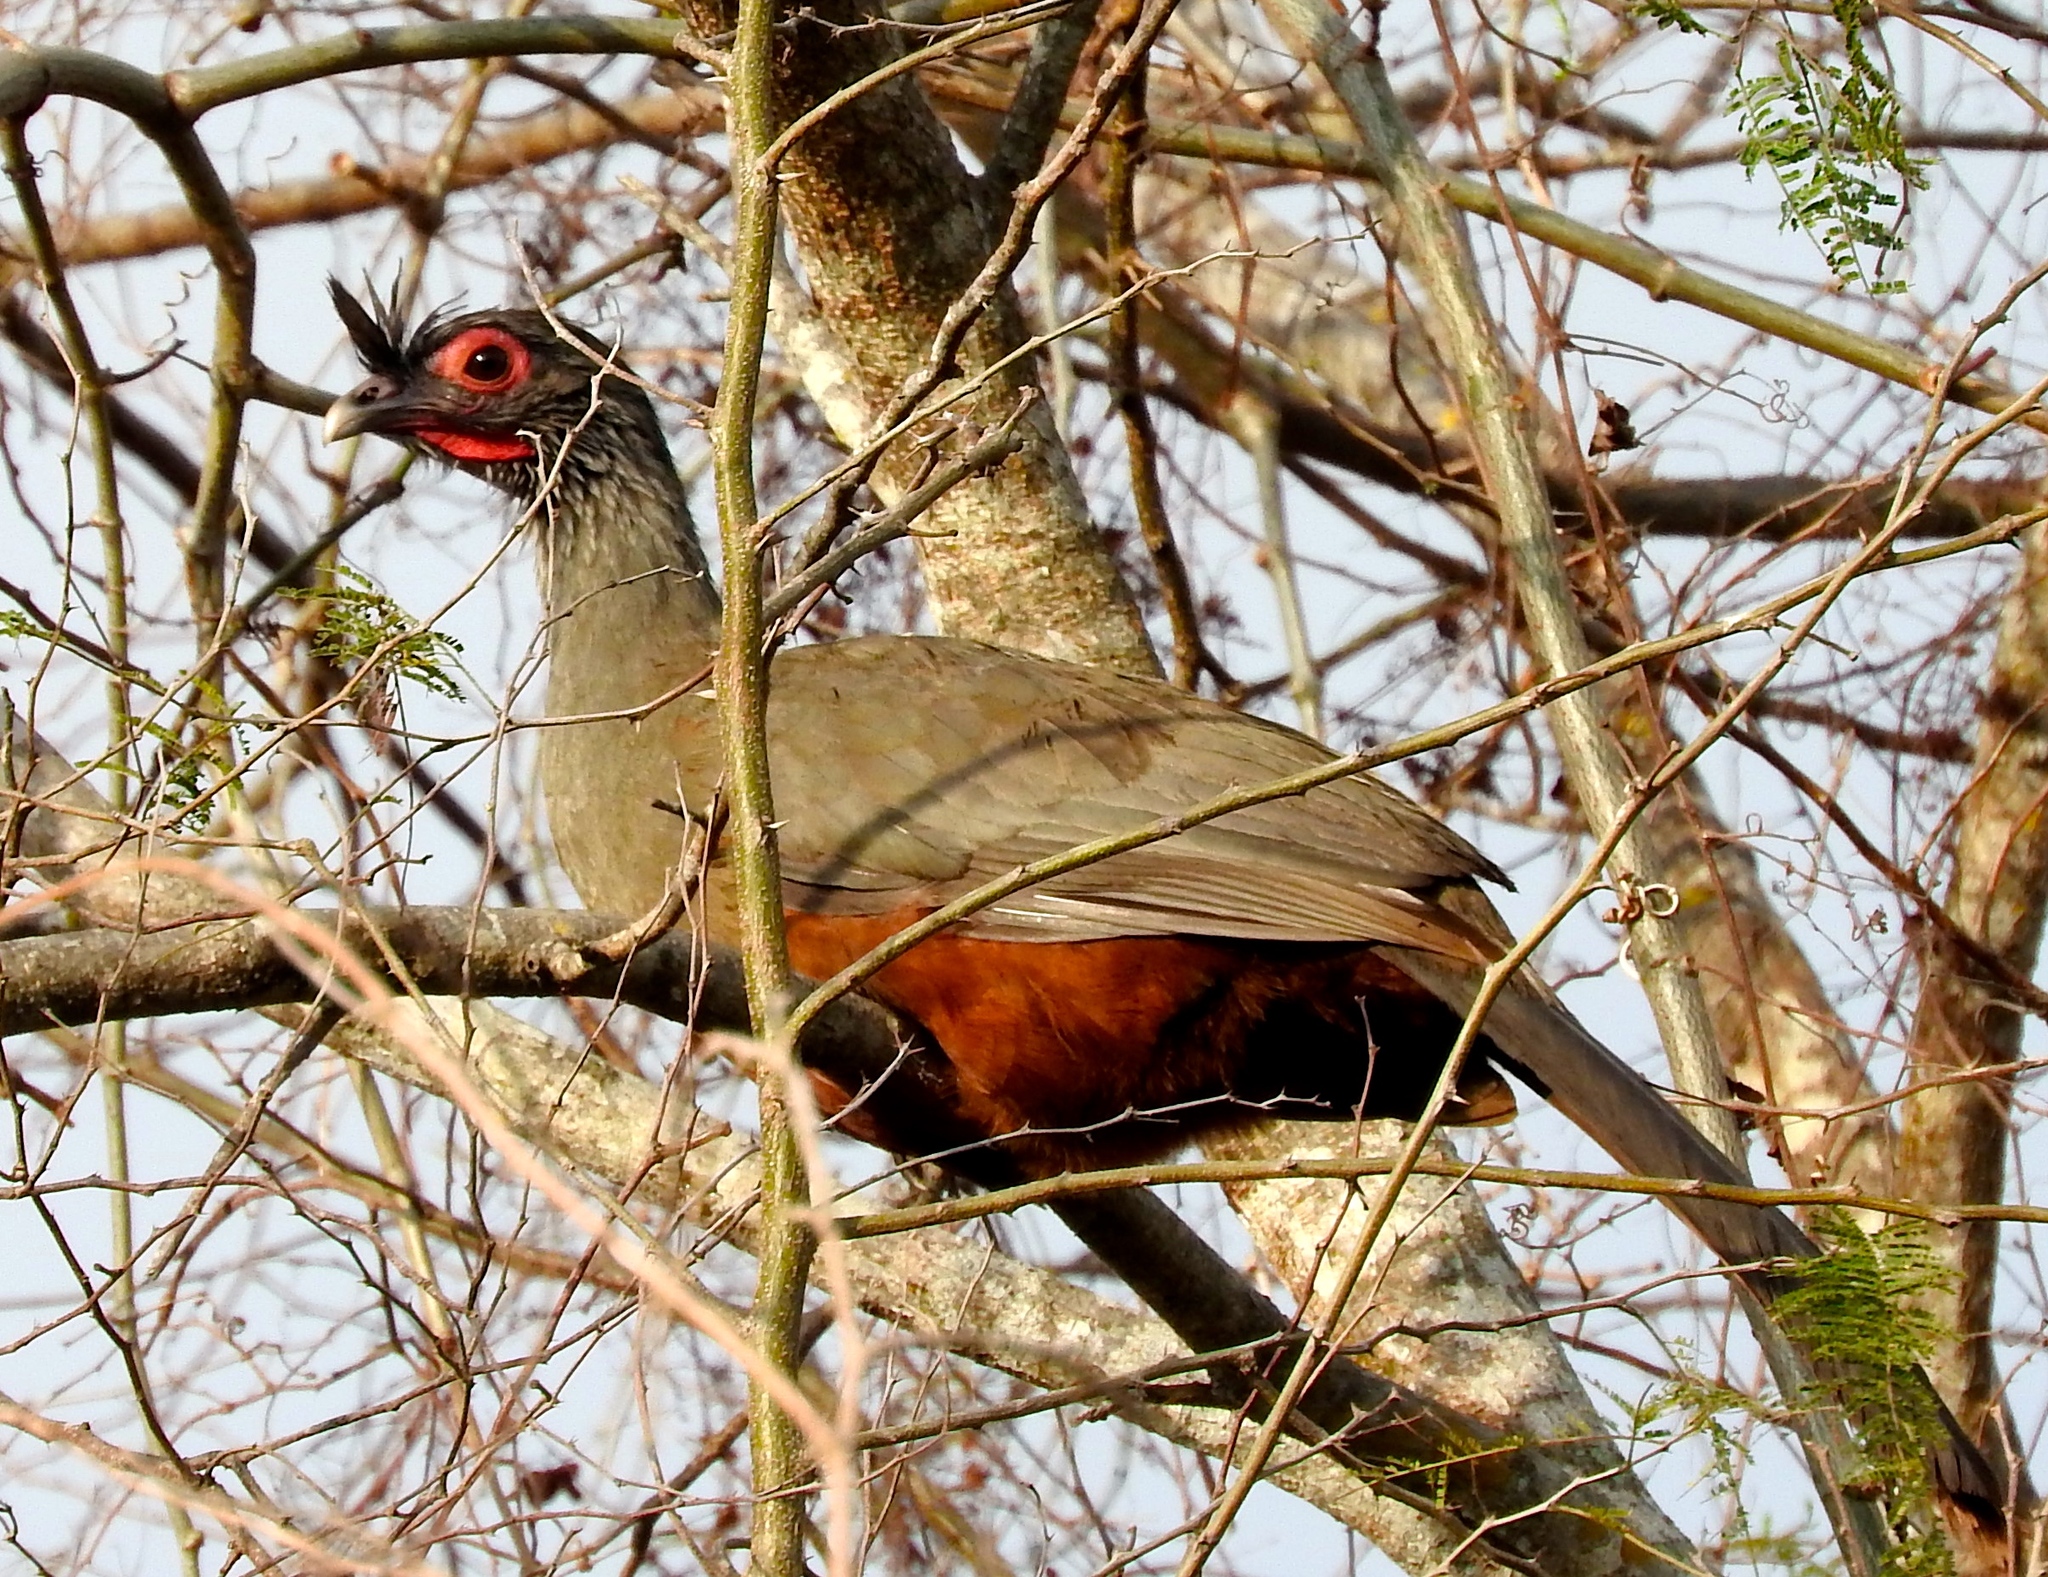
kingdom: Animalia
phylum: Chordata
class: Aves
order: Galliformes
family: Cracidae
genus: Ortalis
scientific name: Ortalis wagleri
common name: Rufous-bellied chachalaca
